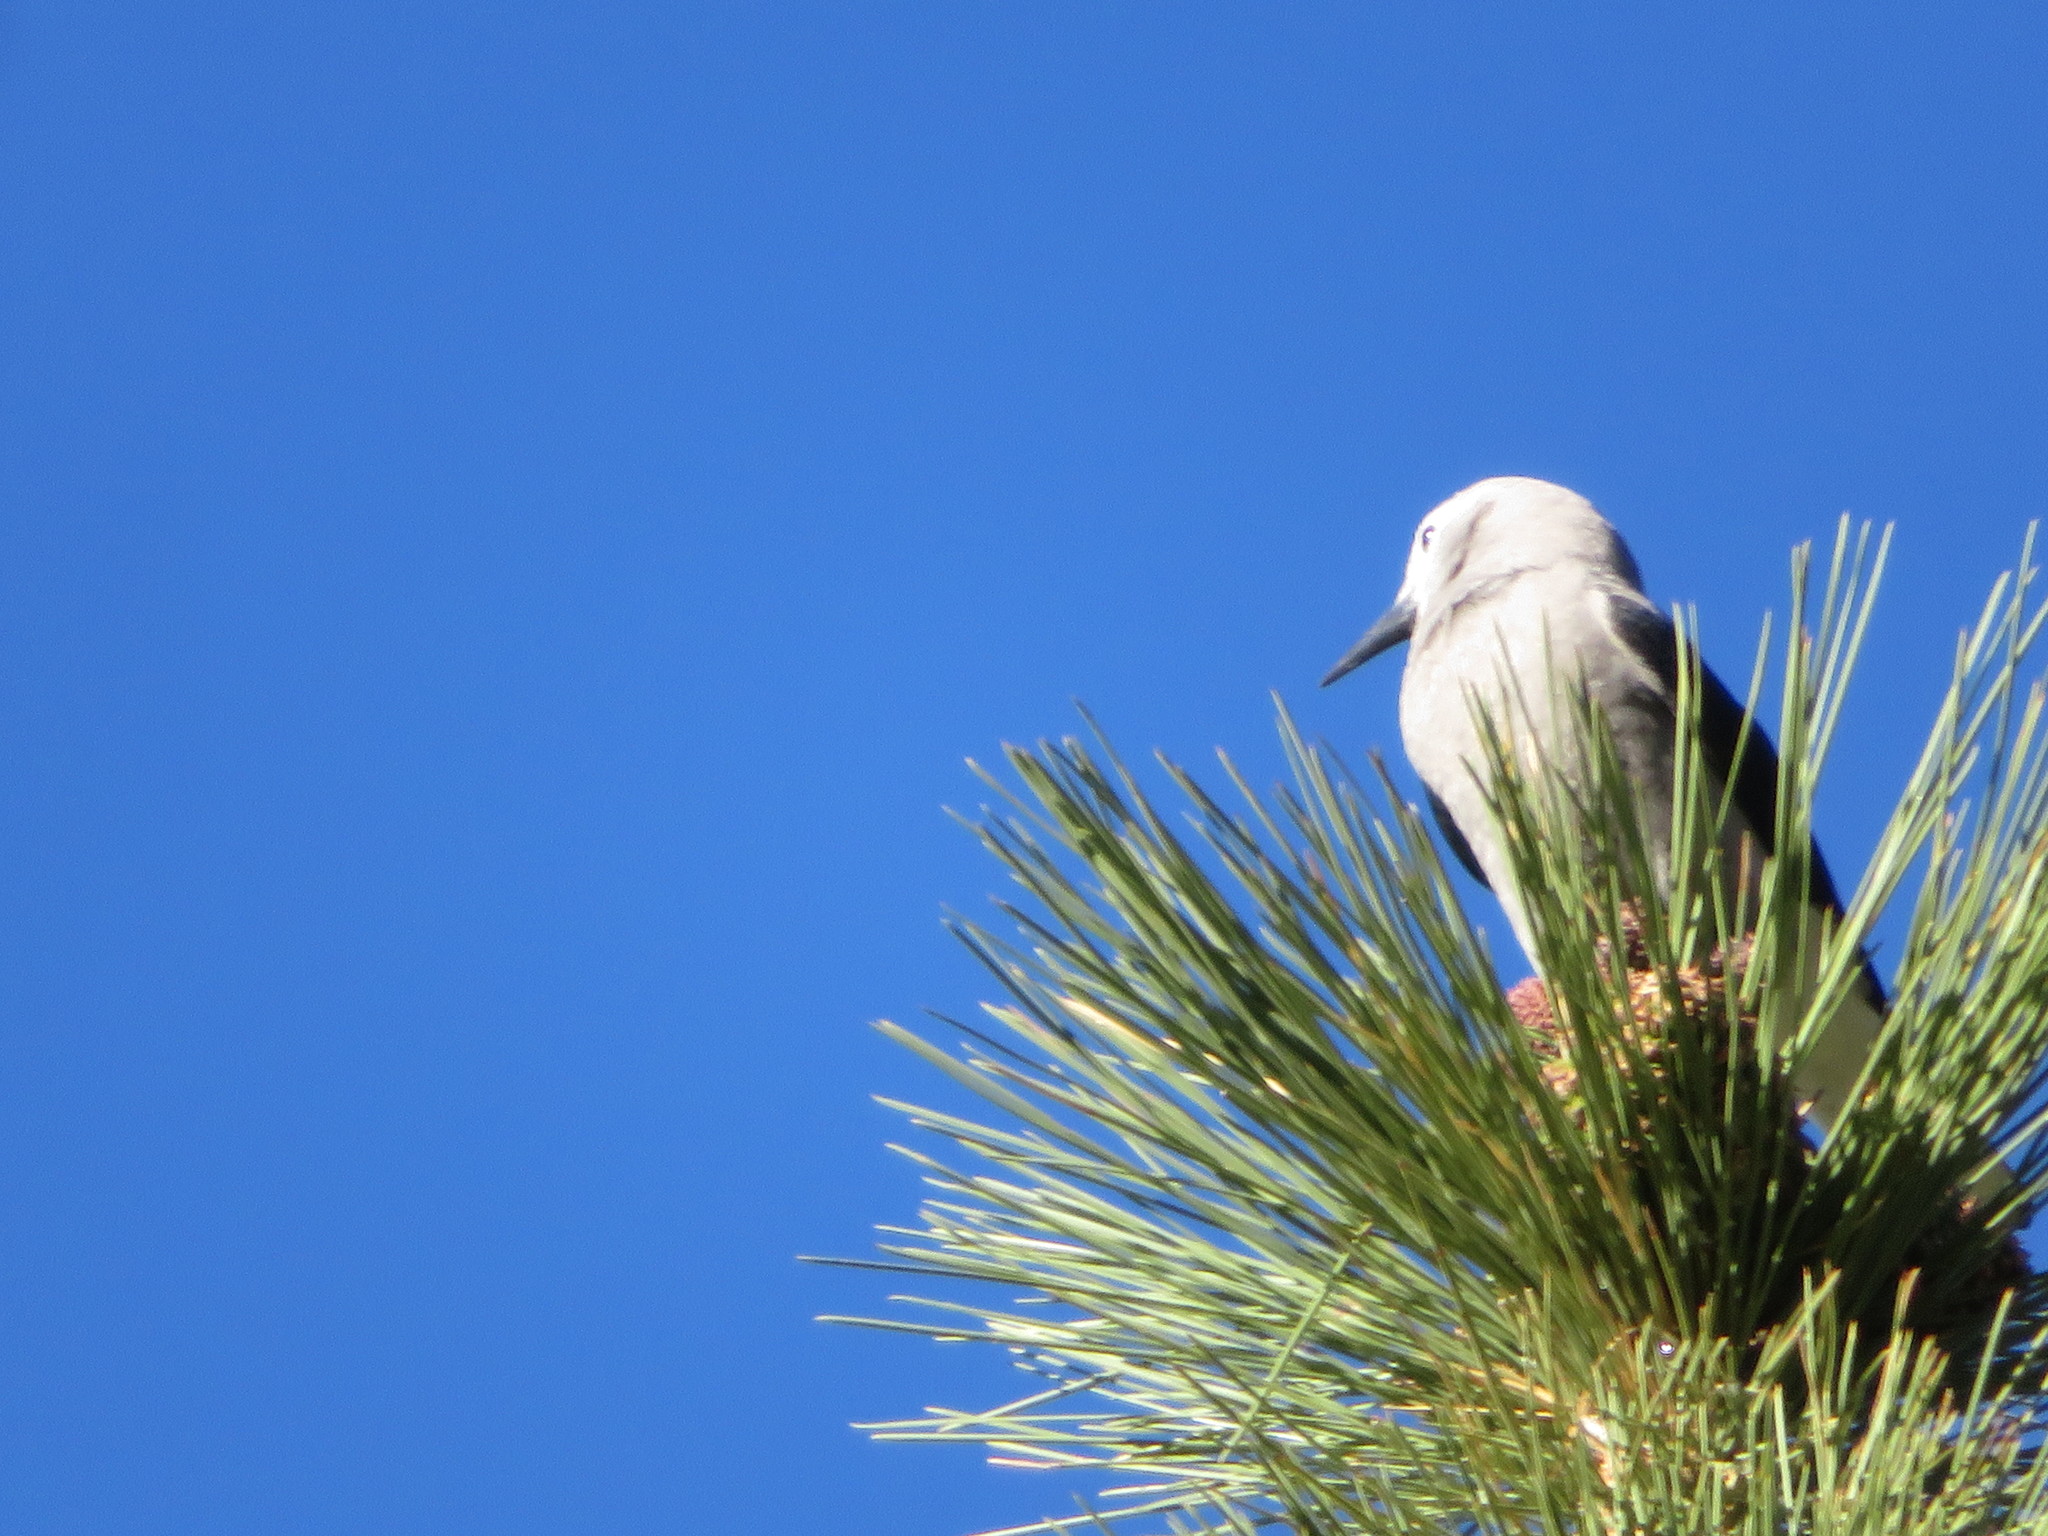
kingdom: Animalia
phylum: Chordata
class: Aves
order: Passeriformes
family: Corvidae
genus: Nucifraga
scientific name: Nucifraga columbiana
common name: Clark's nutcracker
